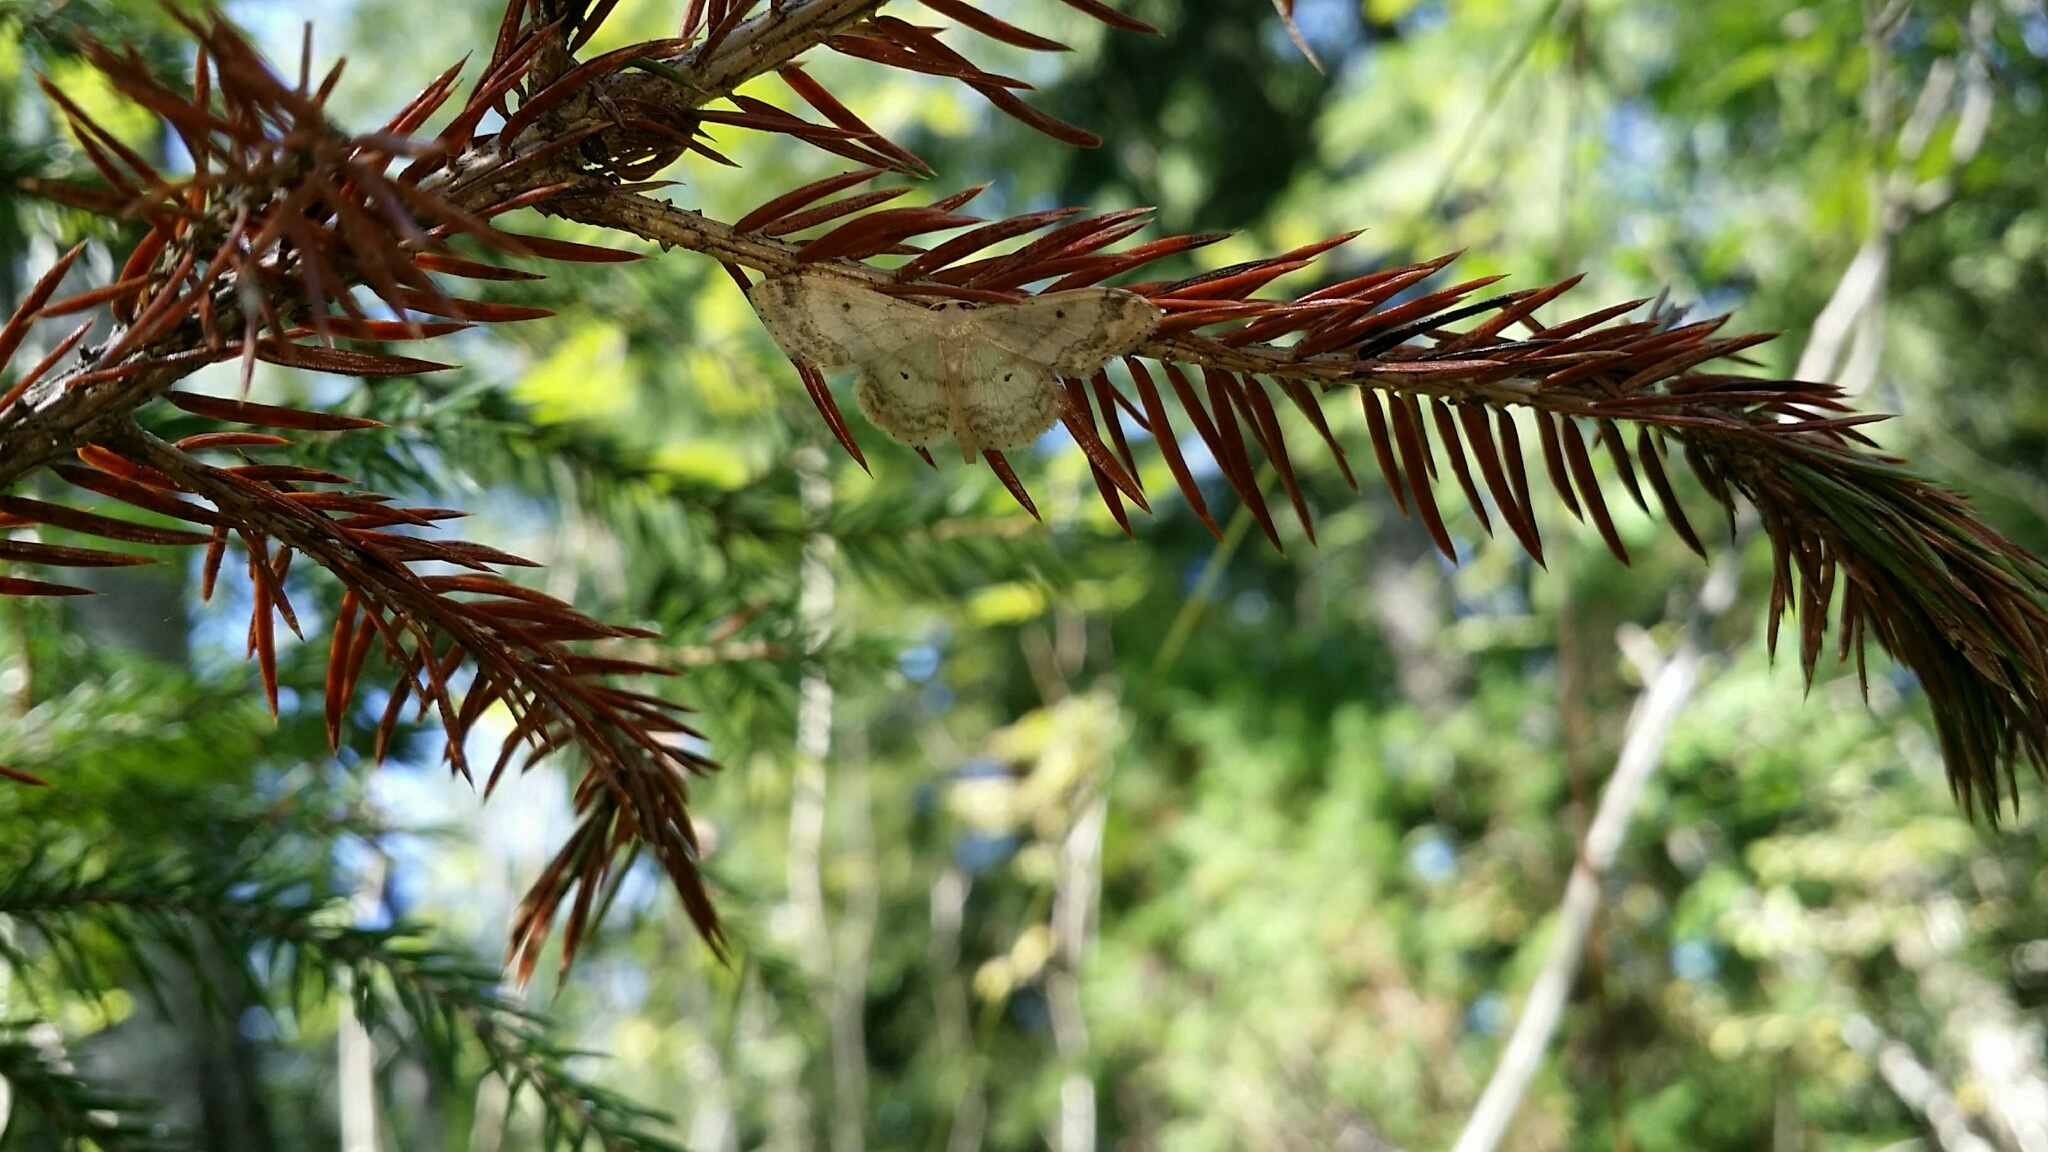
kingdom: Animalia
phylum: Arthropoda
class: Insecta
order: Lepidoptera
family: Geometridae
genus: Idaea
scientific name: Idaea biselata
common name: Small fan-footed wave
